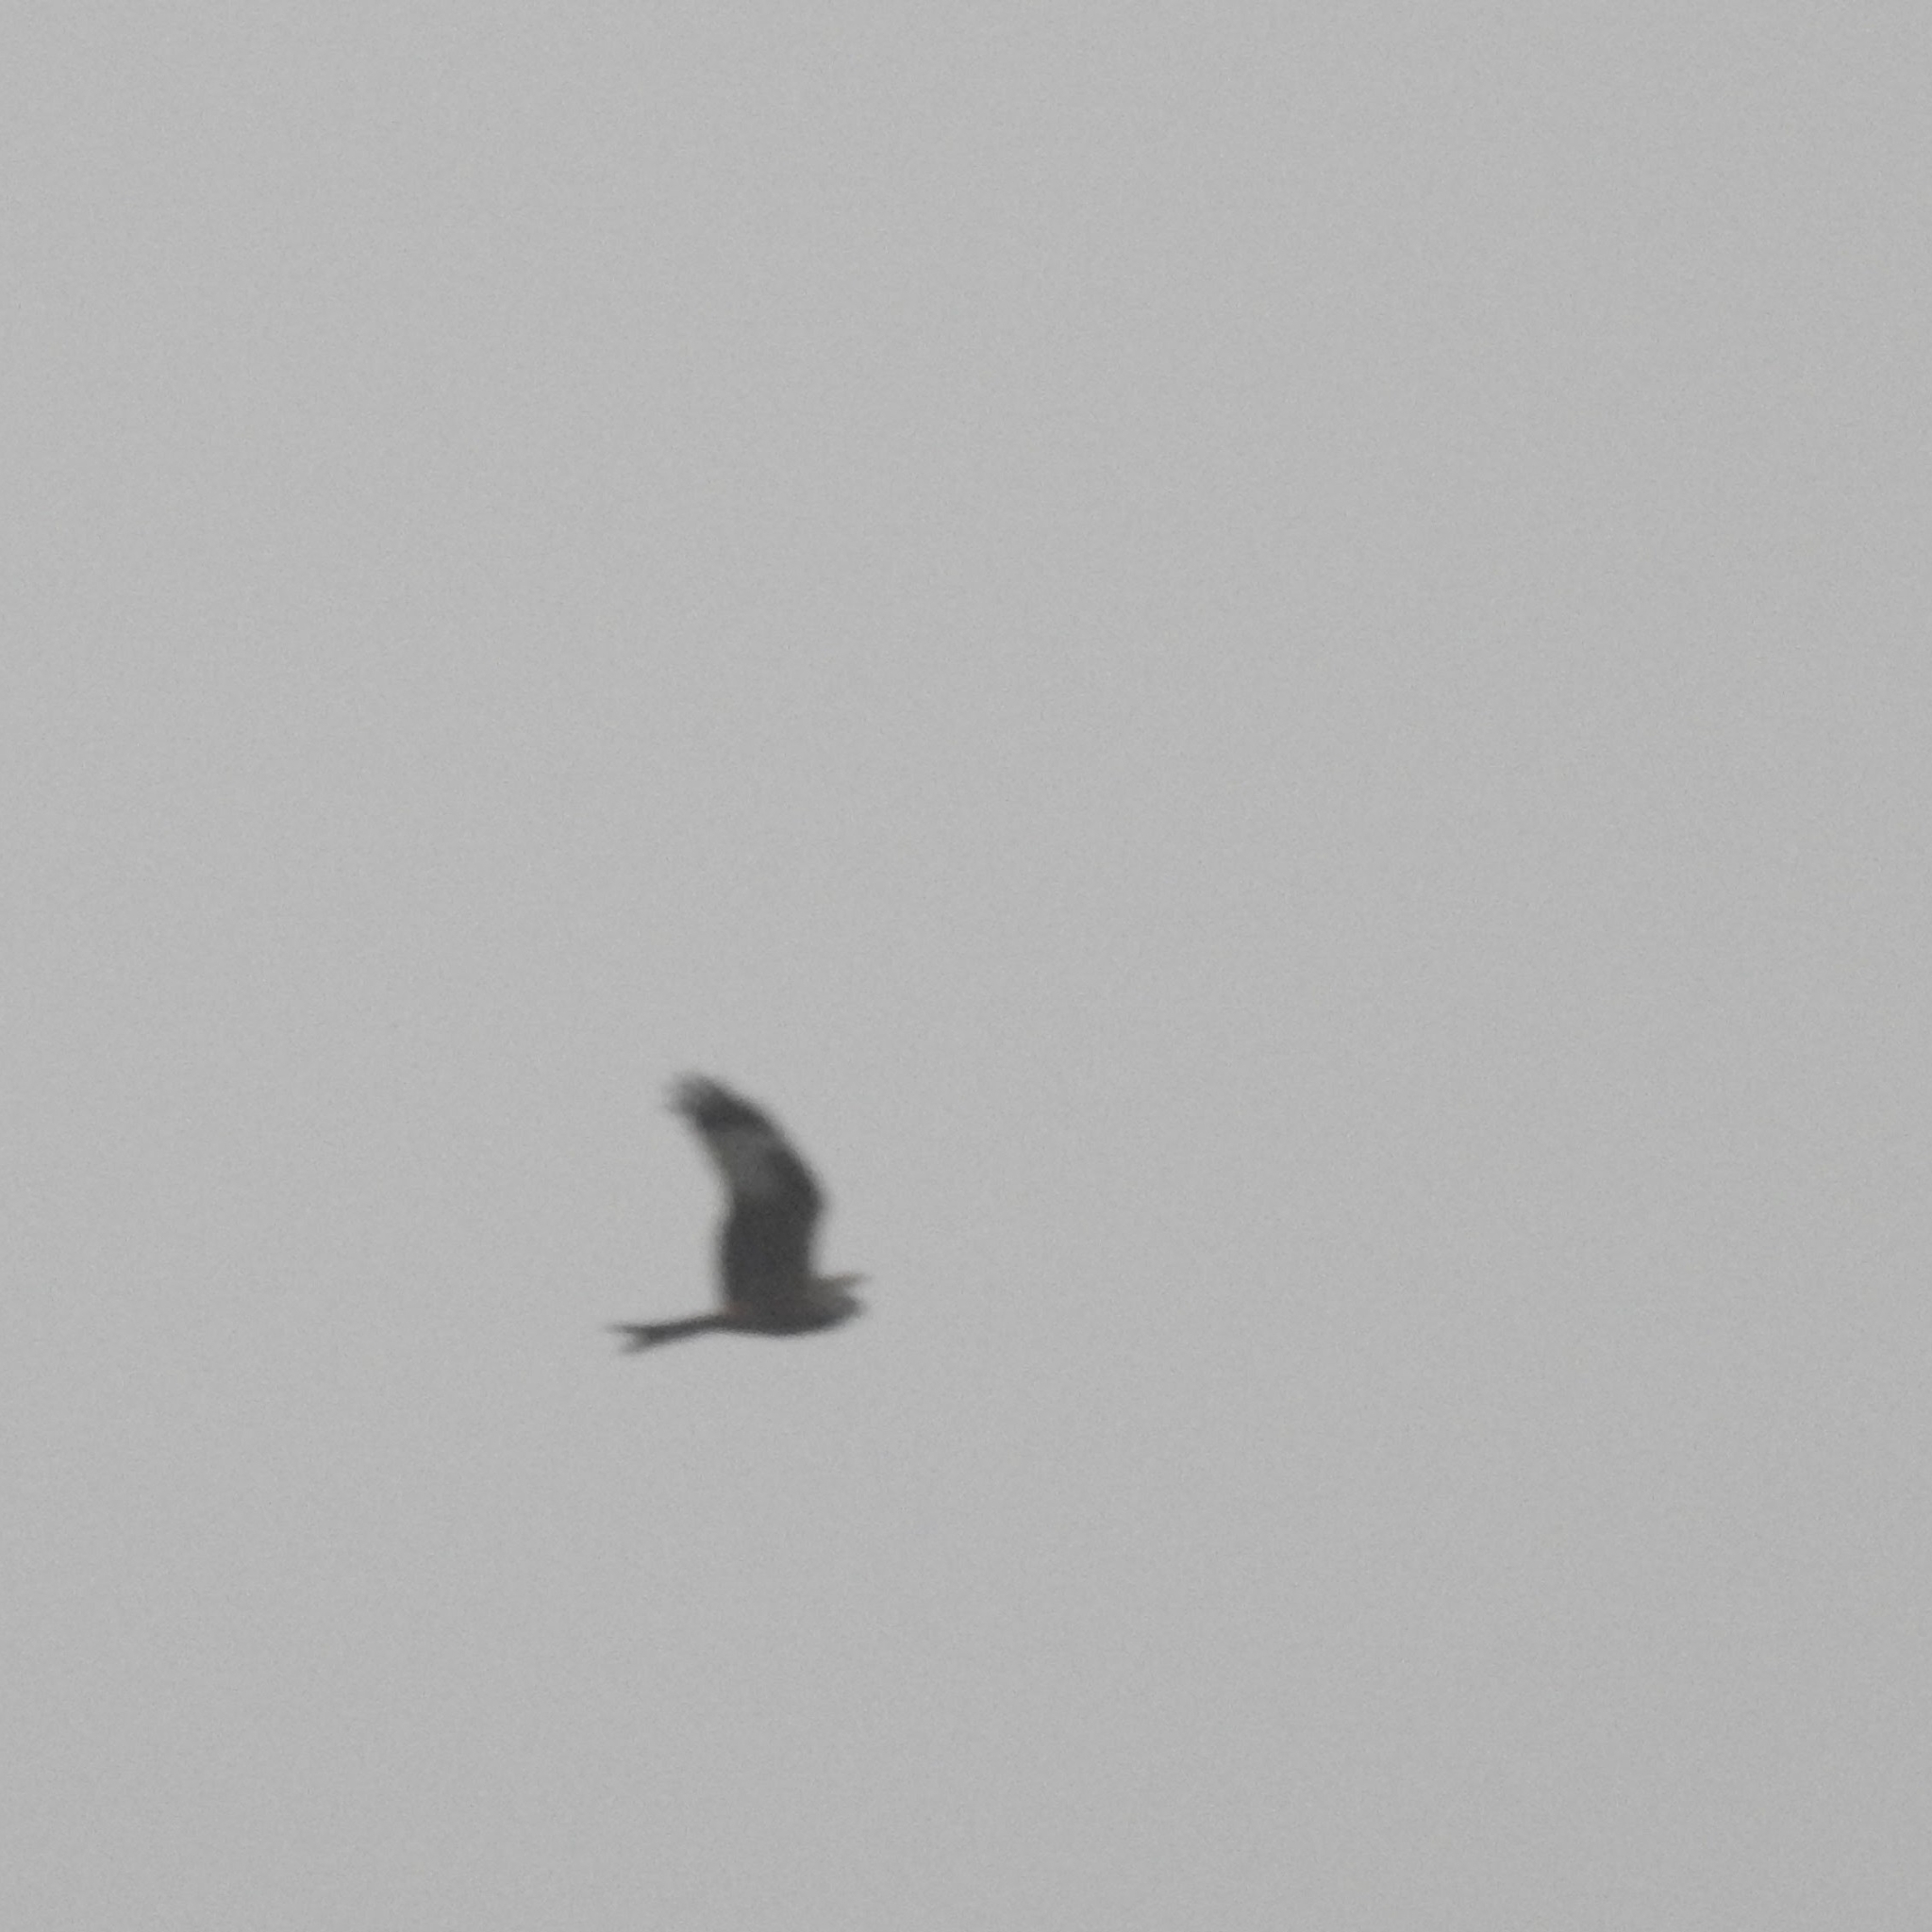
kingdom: Animalia
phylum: Chordata
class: Aves
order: Accipitriformes
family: Accipitridae
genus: Milvus
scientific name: Milvus milvus
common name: Red kite
